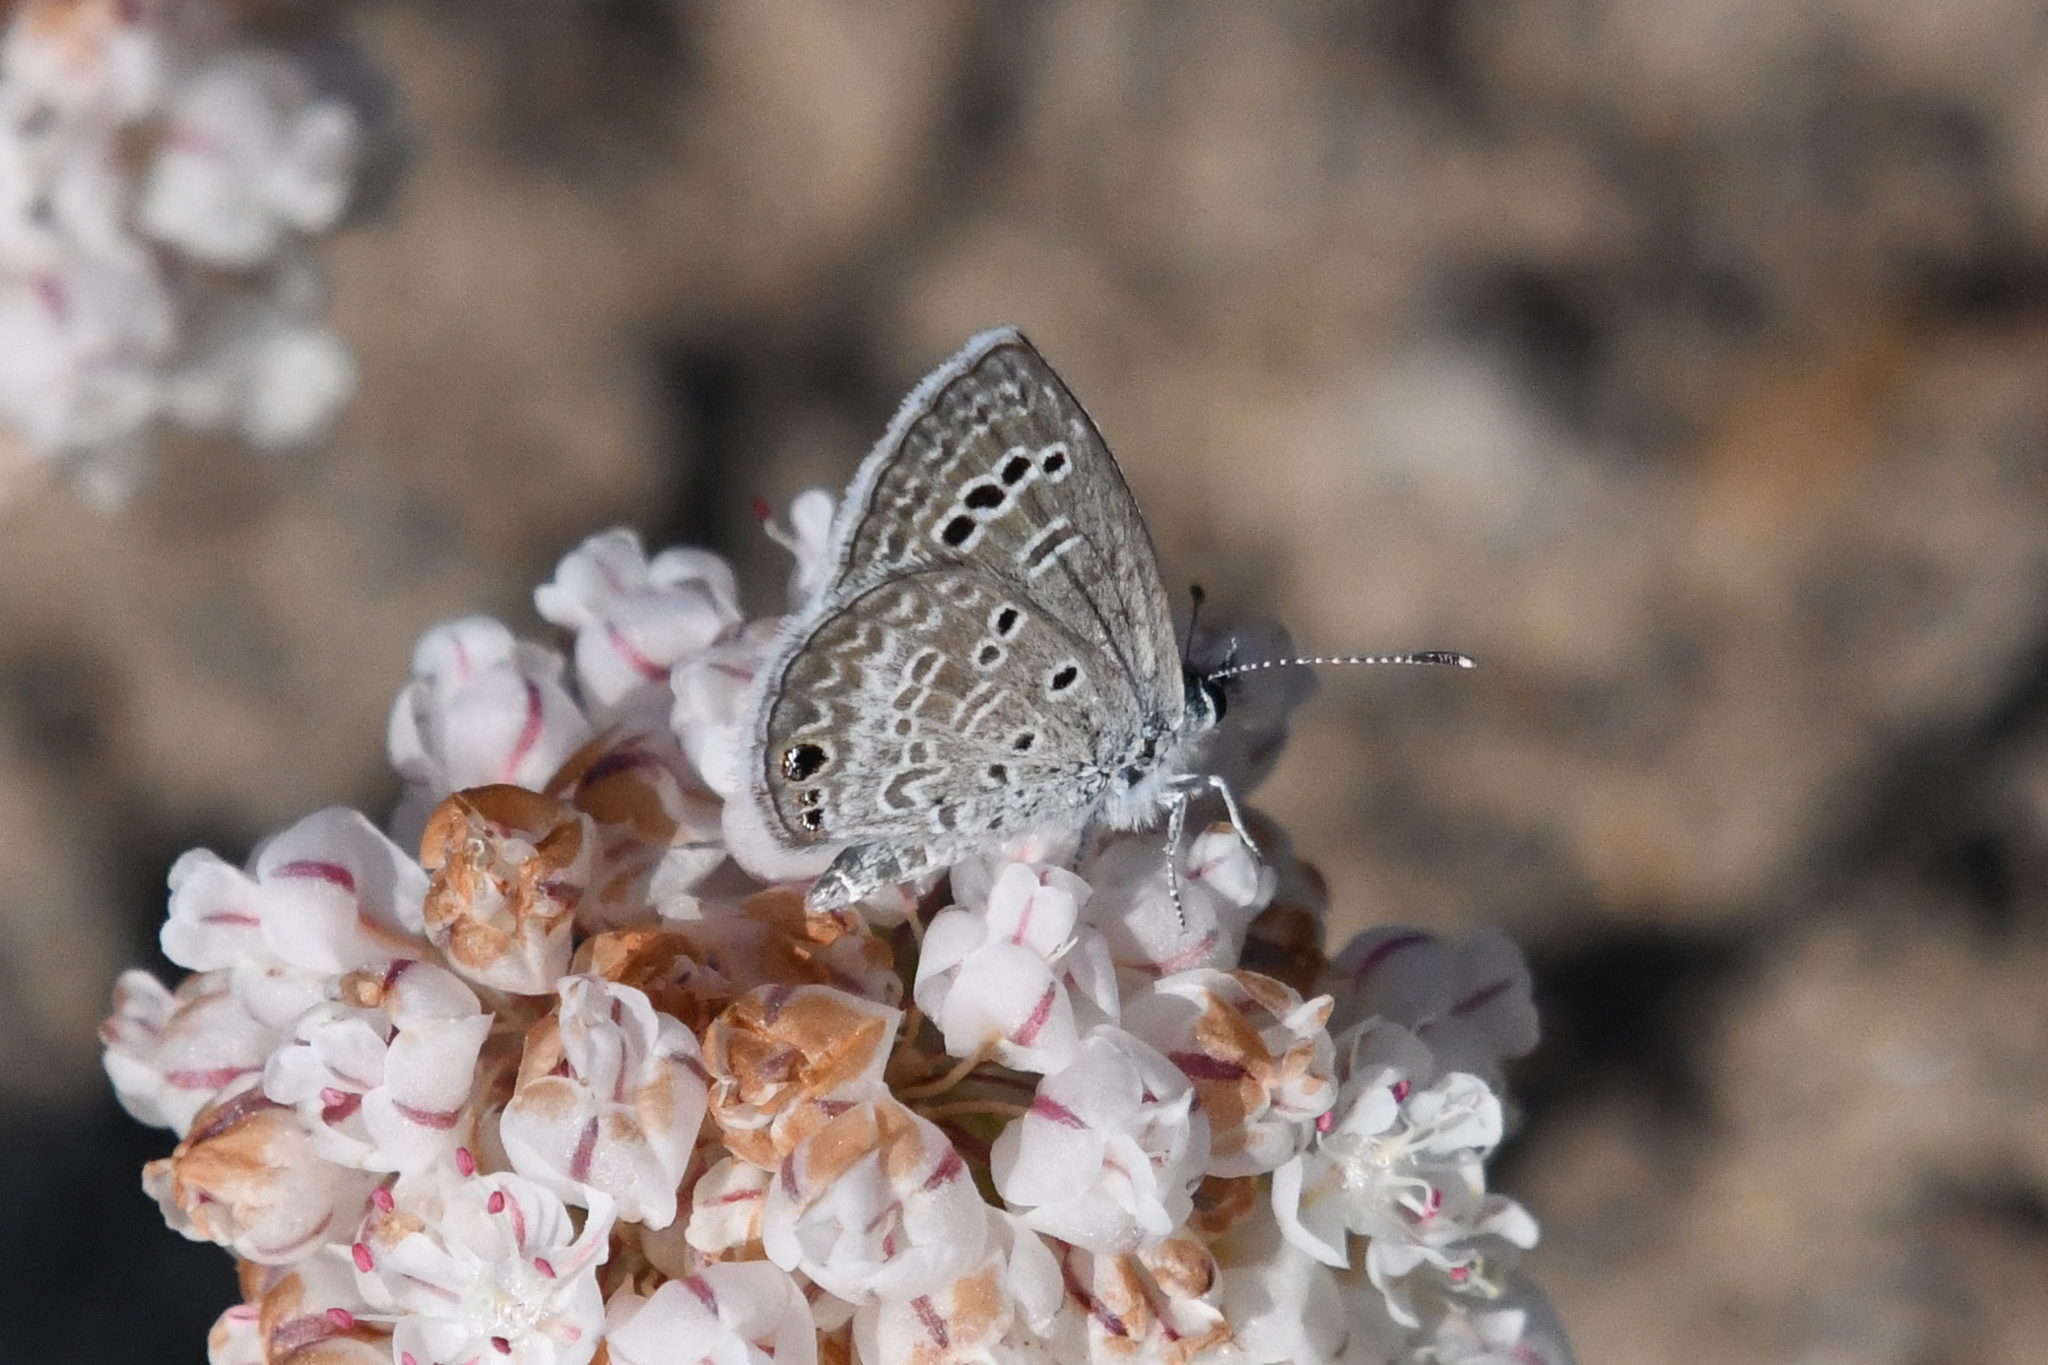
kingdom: Animalia
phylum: Arthropoda
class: Insecta
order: Lepidoptera
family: Lycaenidae
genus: Echinargus
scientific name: Echinargus isola
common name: Reakirt's blue
